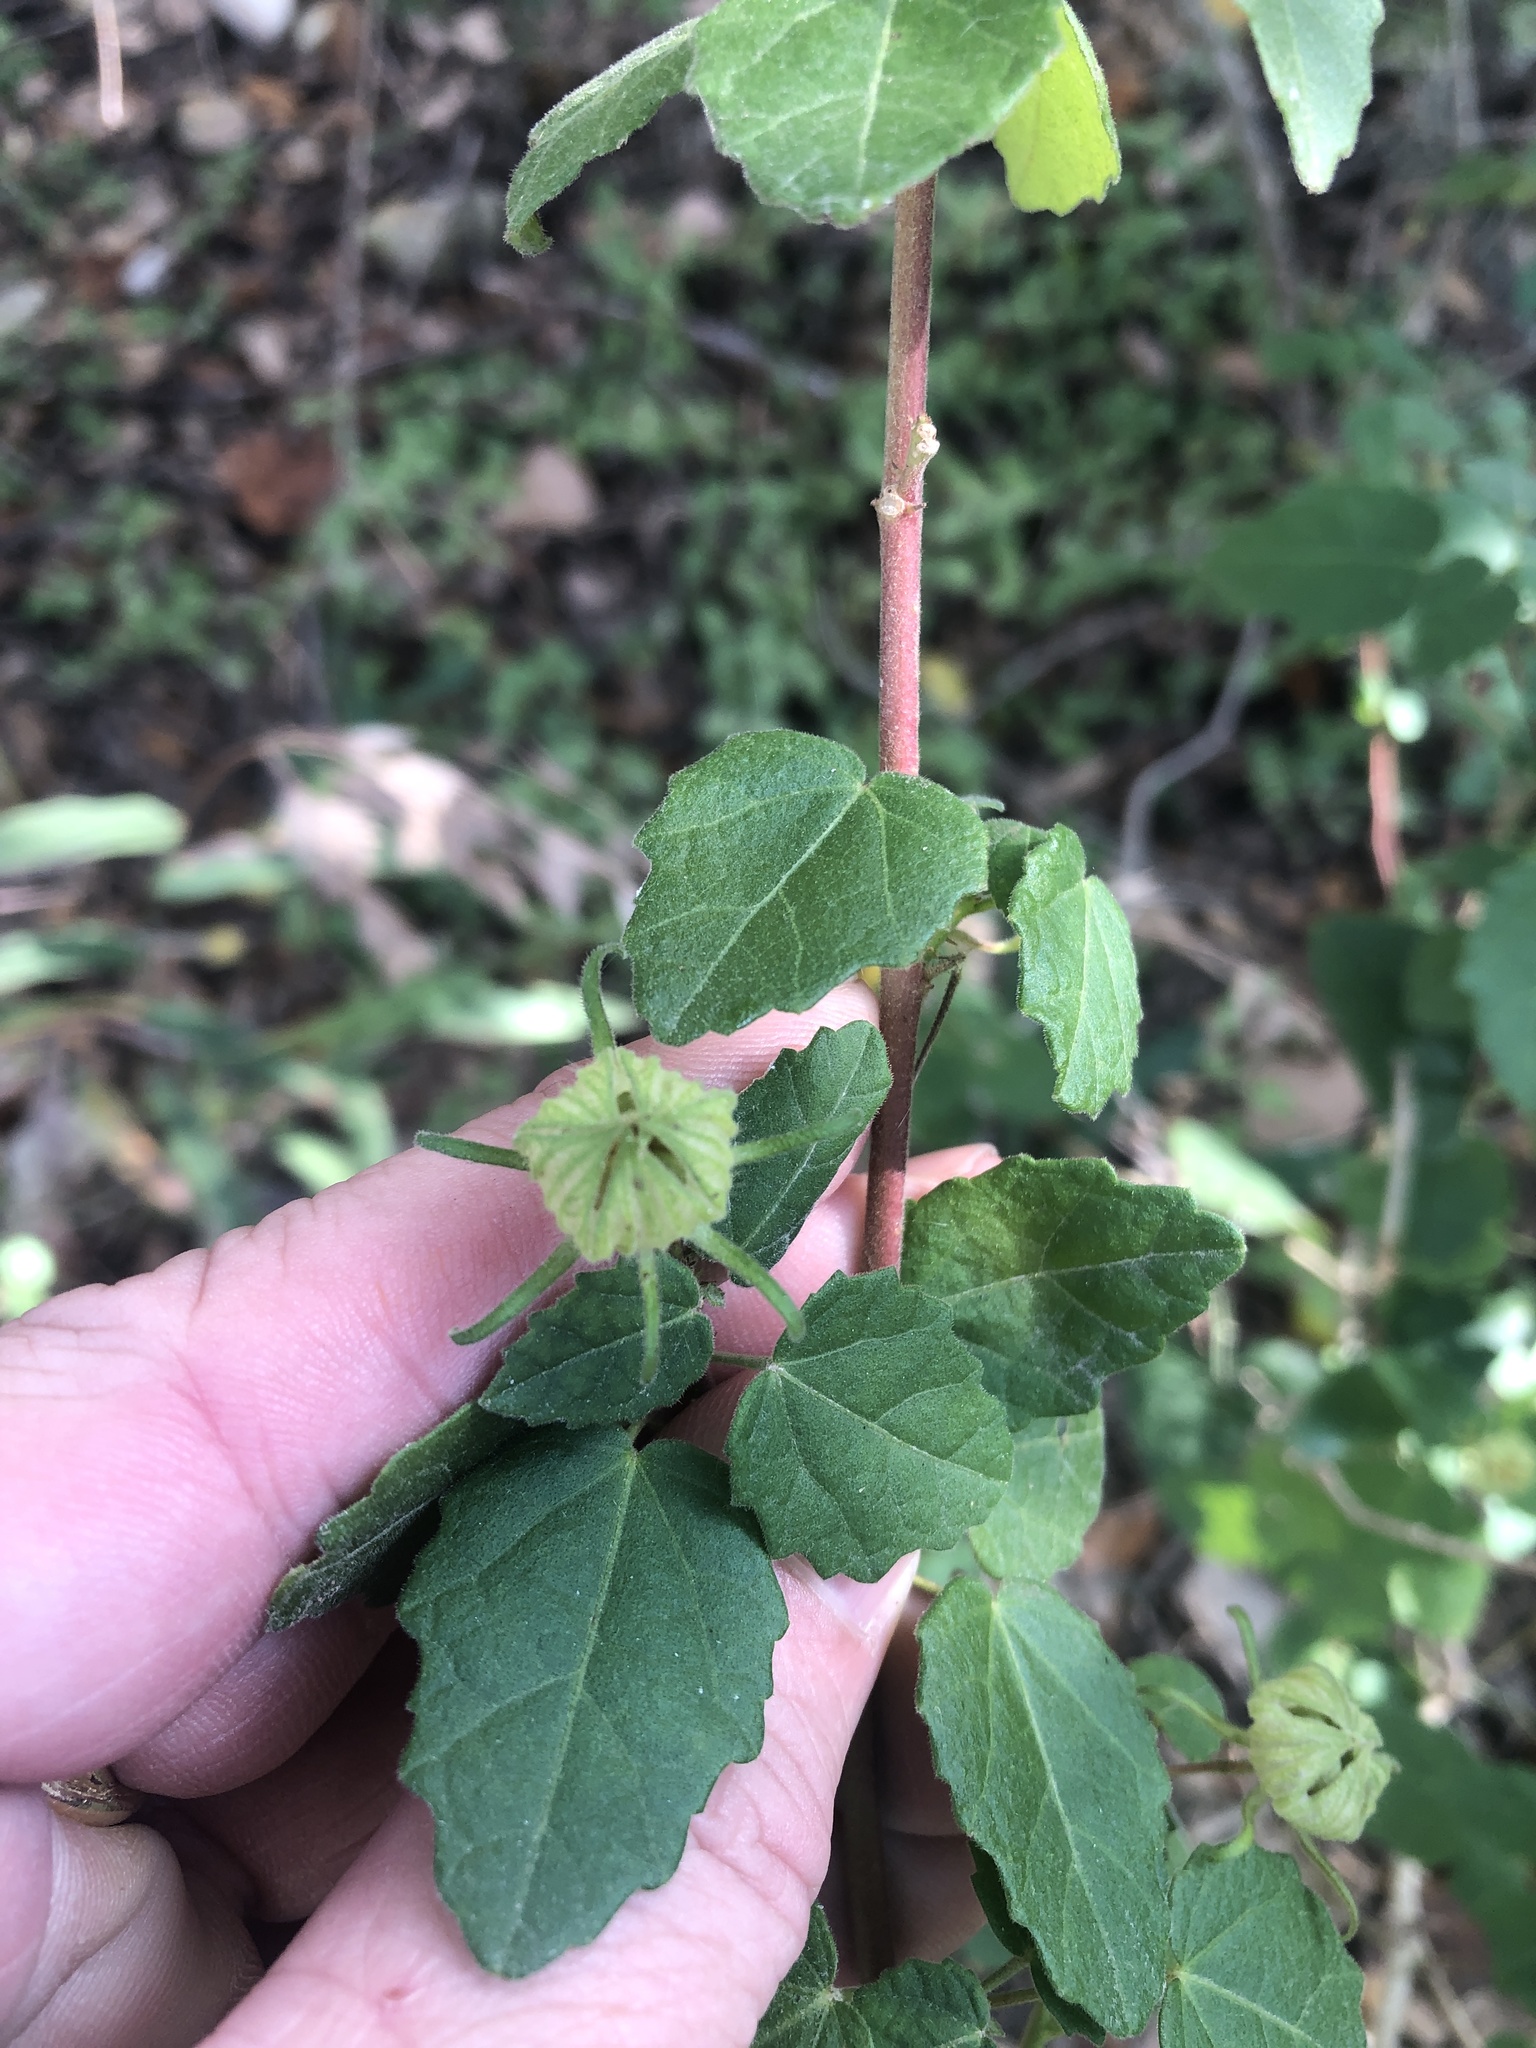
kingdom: Plantae
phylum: Tracheophyta
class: Magnoliopsida
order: Malvales
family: Malvaceae
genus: Pavonia
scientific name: Pavonia lasiopetala
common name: Texas swamp-mallow
